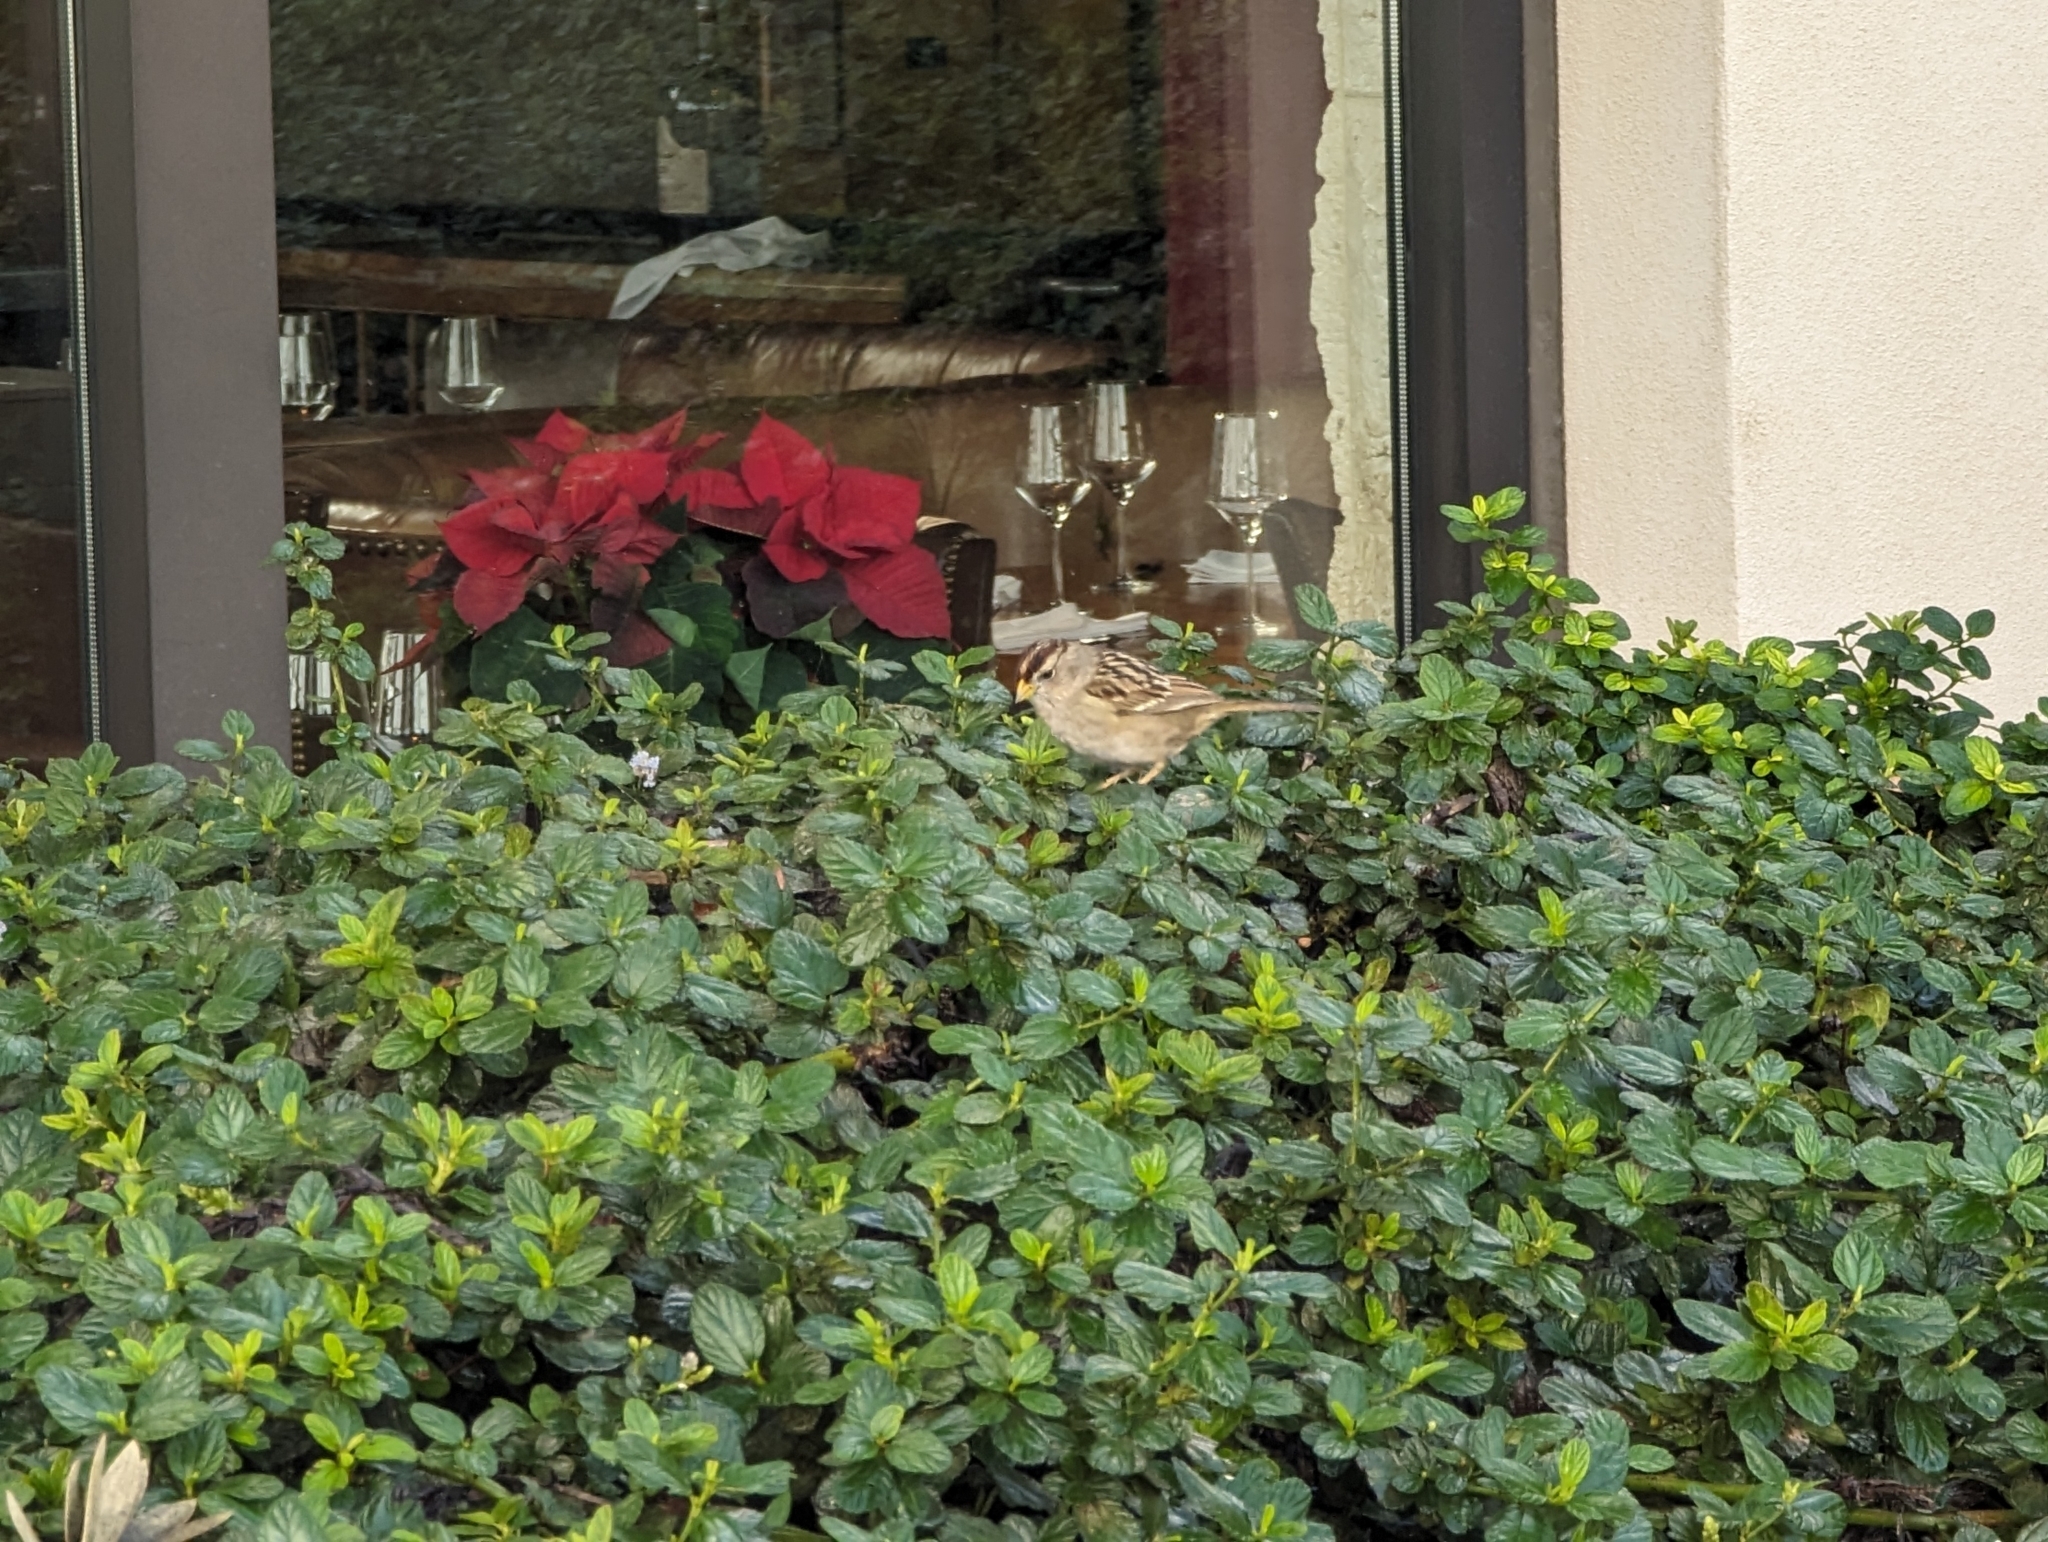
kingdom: Animalia
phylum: Chordata
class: Aves
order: Passeriformes
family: Passerellidae
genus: Zonotrichia
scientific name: Zonotrichia leucophrys
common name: White-crowned sparrow
